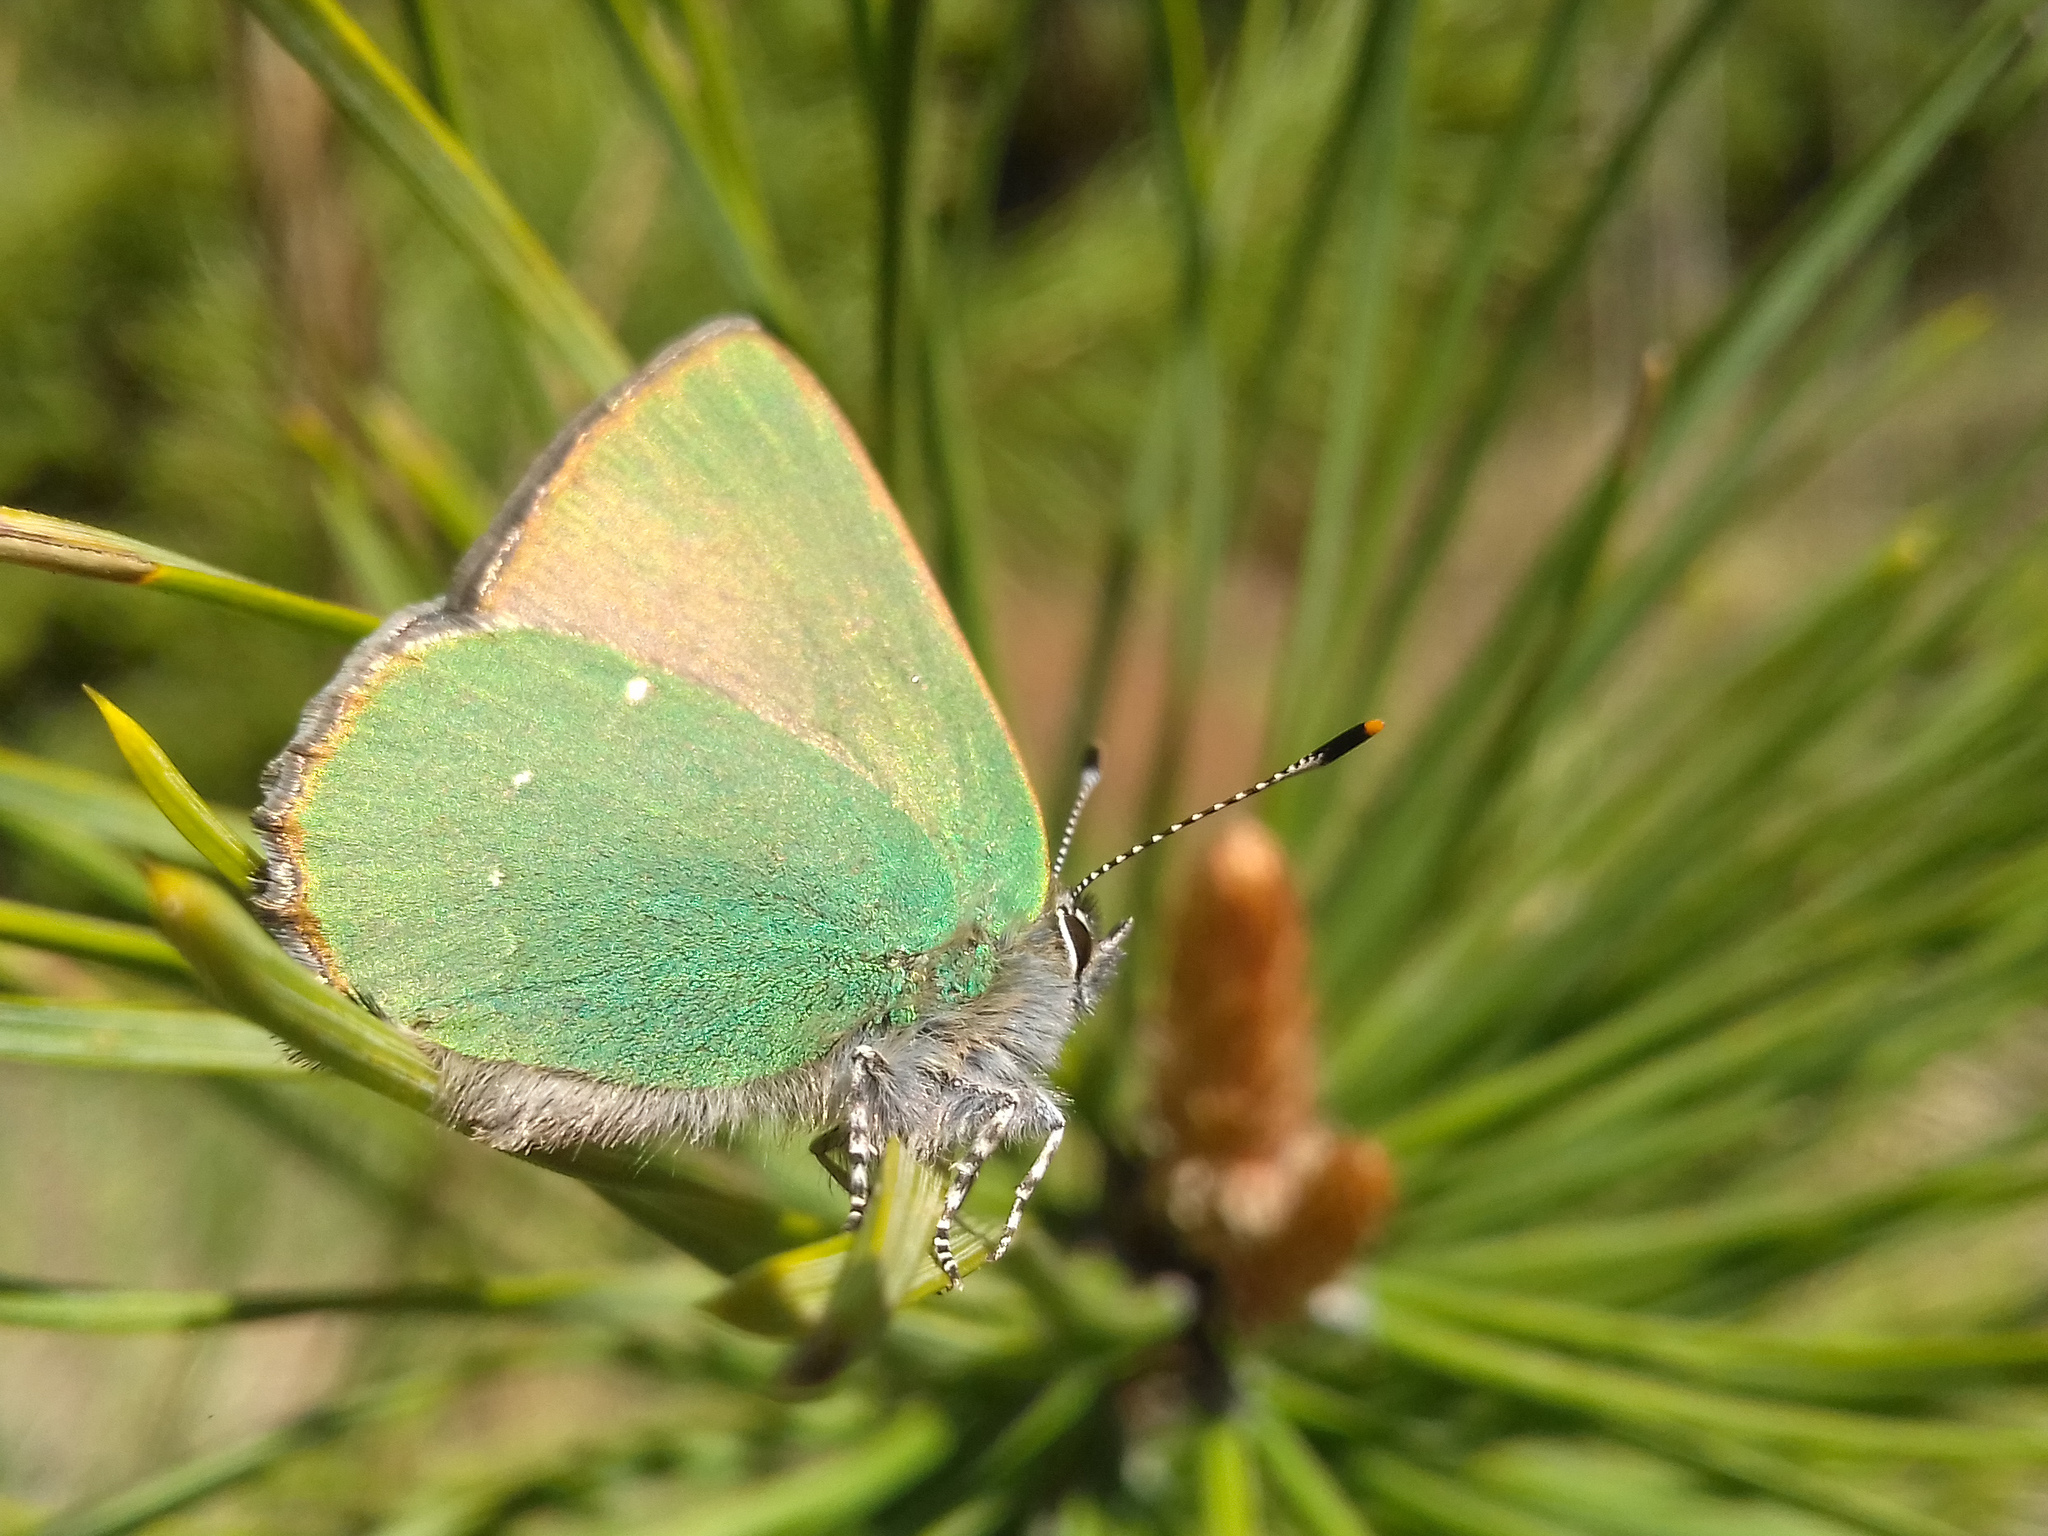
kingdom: Animalia
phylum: Arthropoda
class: Insecta
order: Lepidoptera
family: Lycaenidae
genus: Callophrys
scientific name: Callophrys rubi
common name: Green hairstreak
